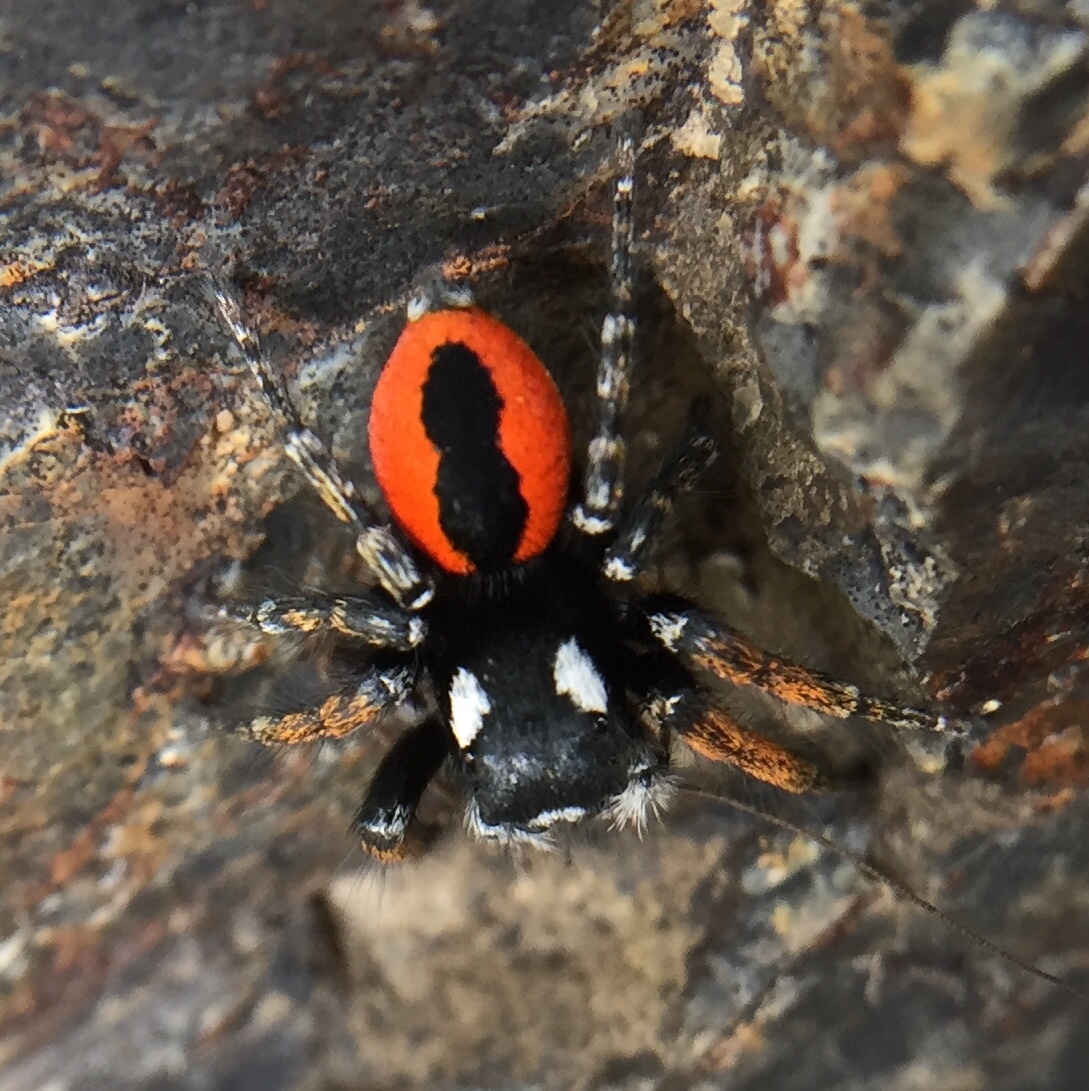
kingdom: Animalia
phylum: Arthropoda
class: Arachnida
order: Araneae
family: Salticidae
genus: Philaeus
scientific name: Philaeus chrysops
